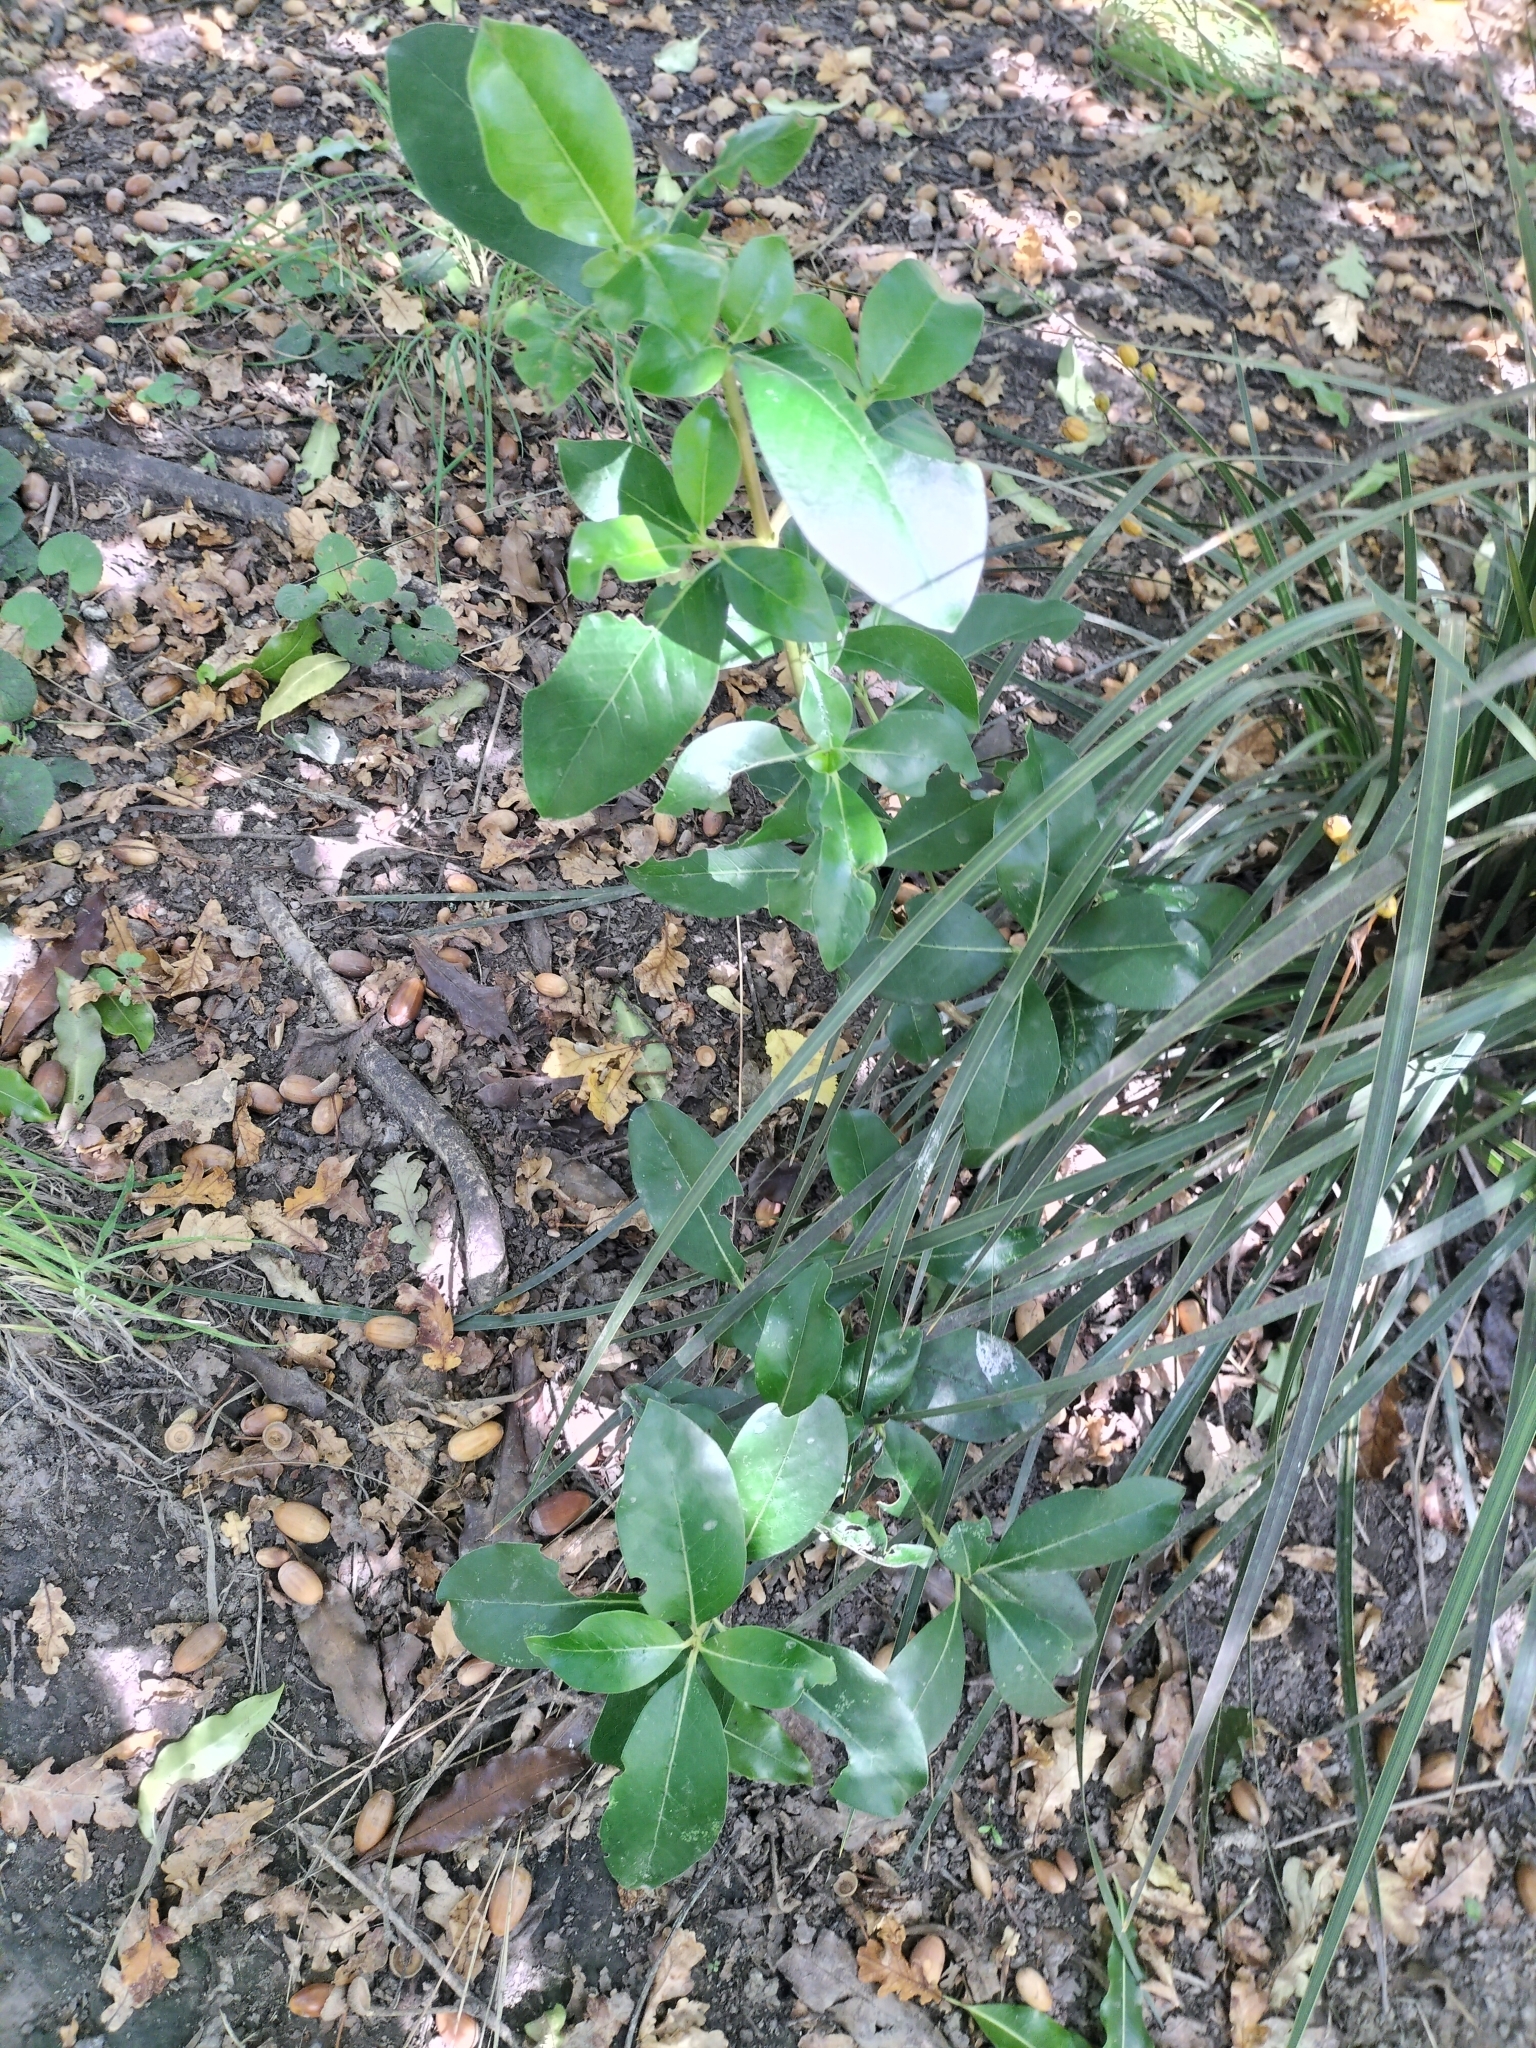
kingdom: Plantae
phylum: Tracheophyta
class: Magnoliopsida
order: Gentianales
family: Rubiaceae
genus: Coprosma
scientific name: Coprosma robusta
